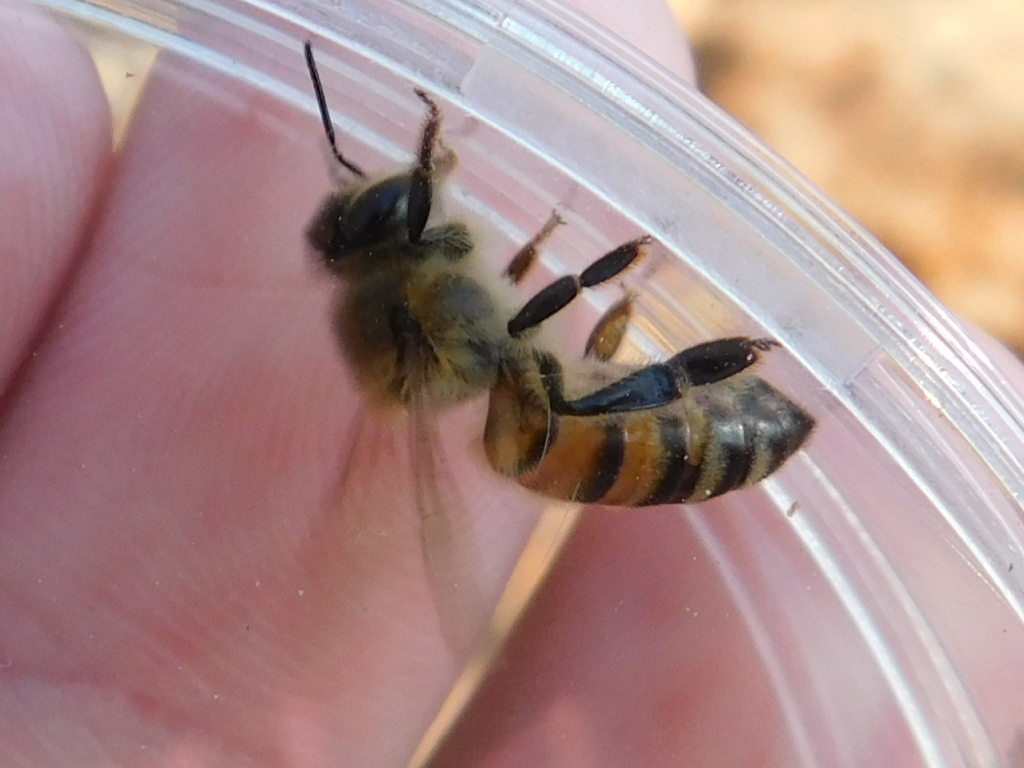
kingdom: Animalia
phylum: Arthropoda
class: Insecta
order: Hymenoptera
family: Apidae
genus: Apis
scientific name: Apis mellifera
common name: Honey bee
